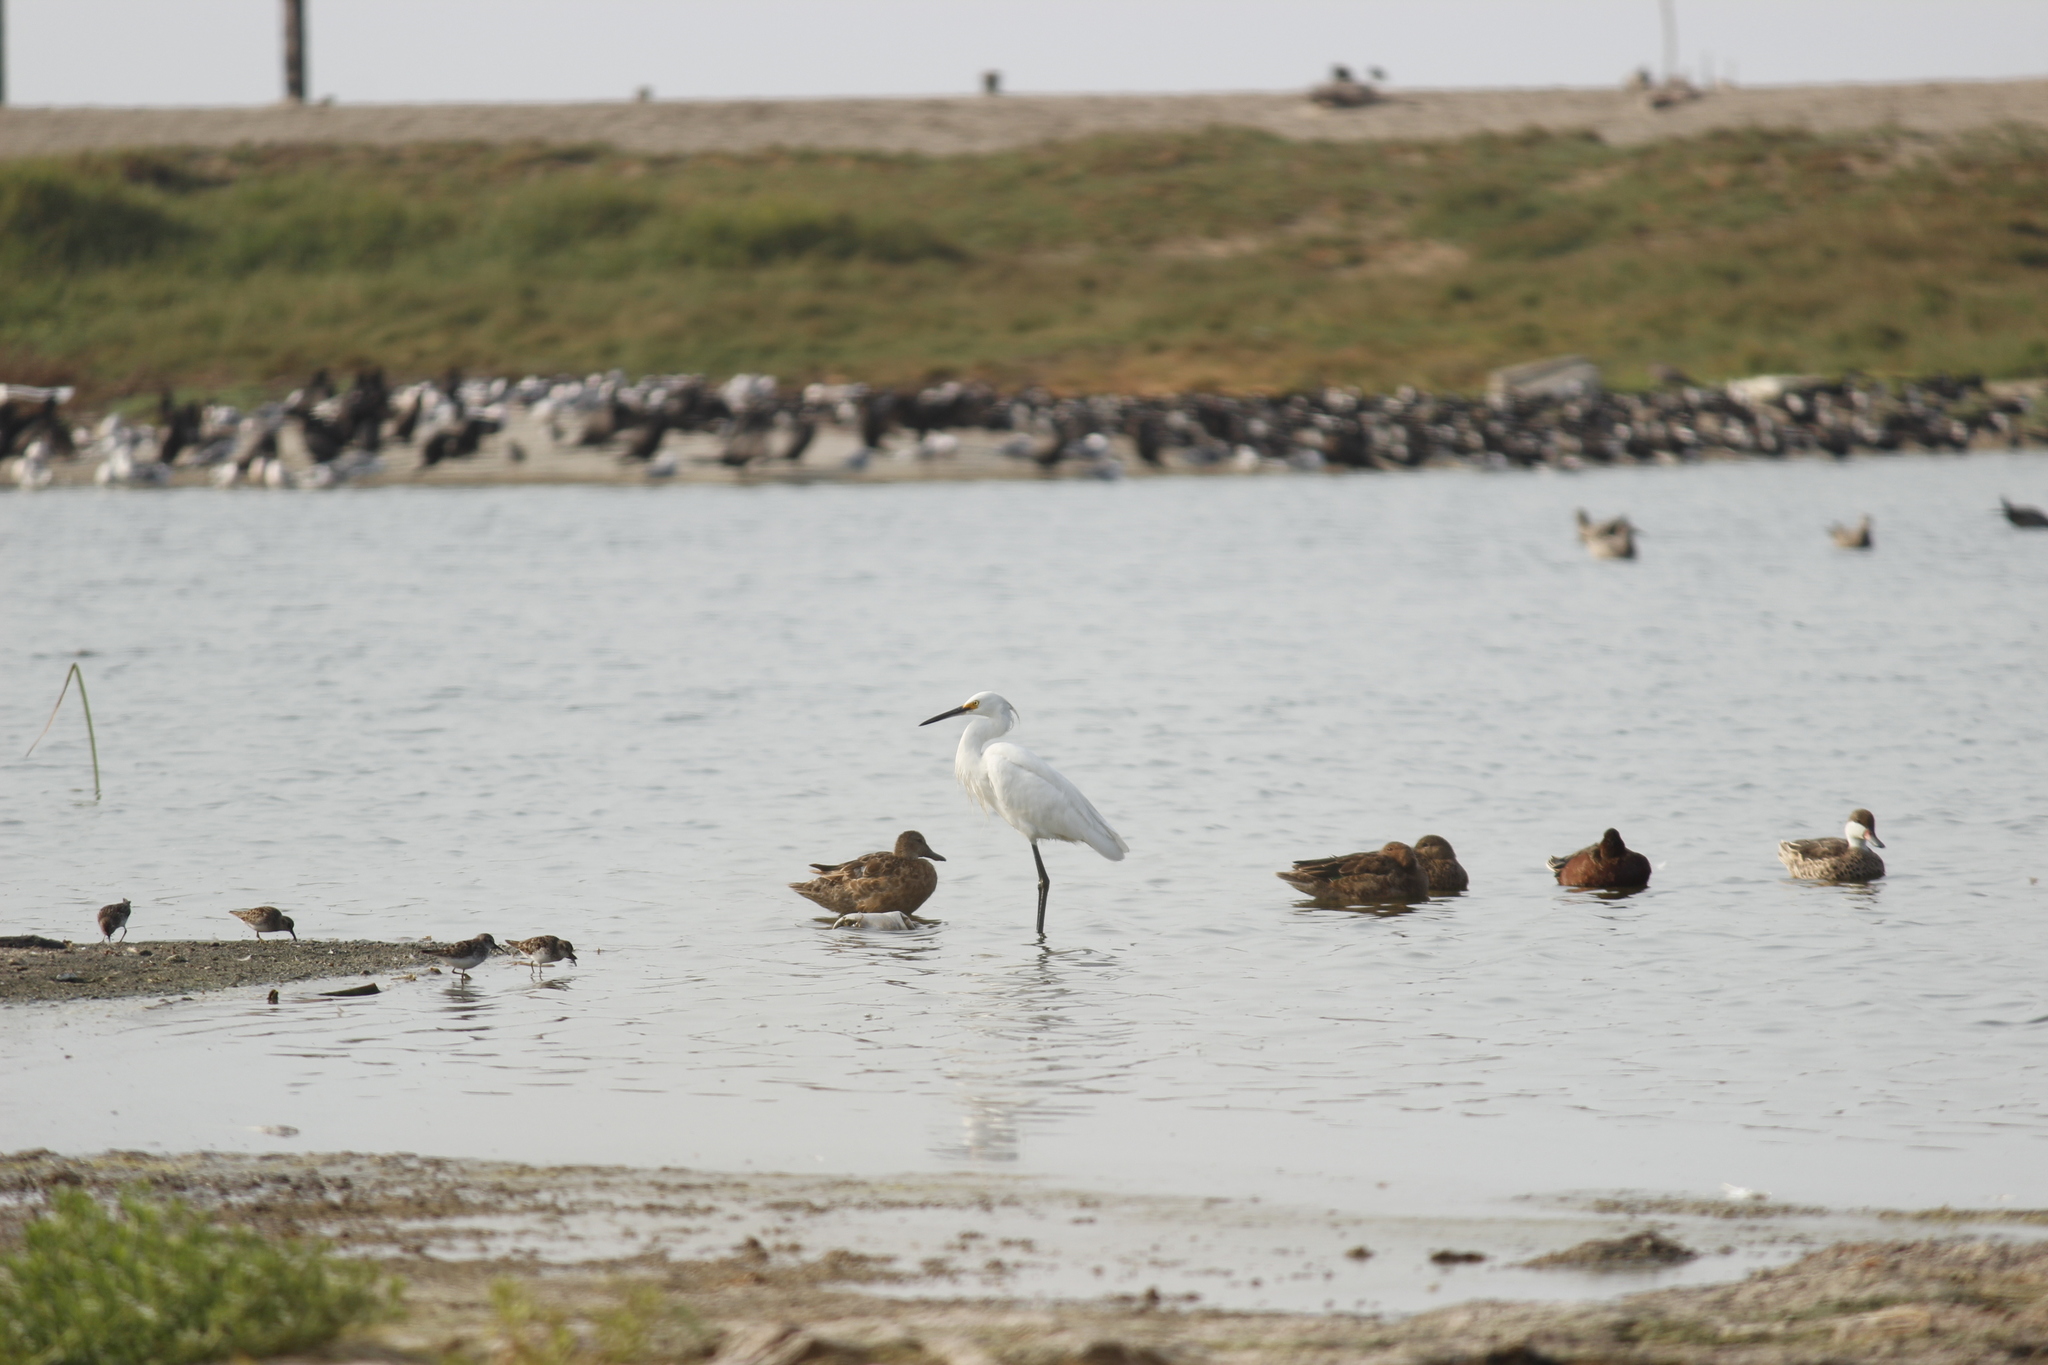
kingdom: Animalia
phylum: Chordata
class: Aves
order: Pelecaniformes
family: Ardeidae
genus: Egretta
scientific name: Egretta thula
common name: Snowy egret
